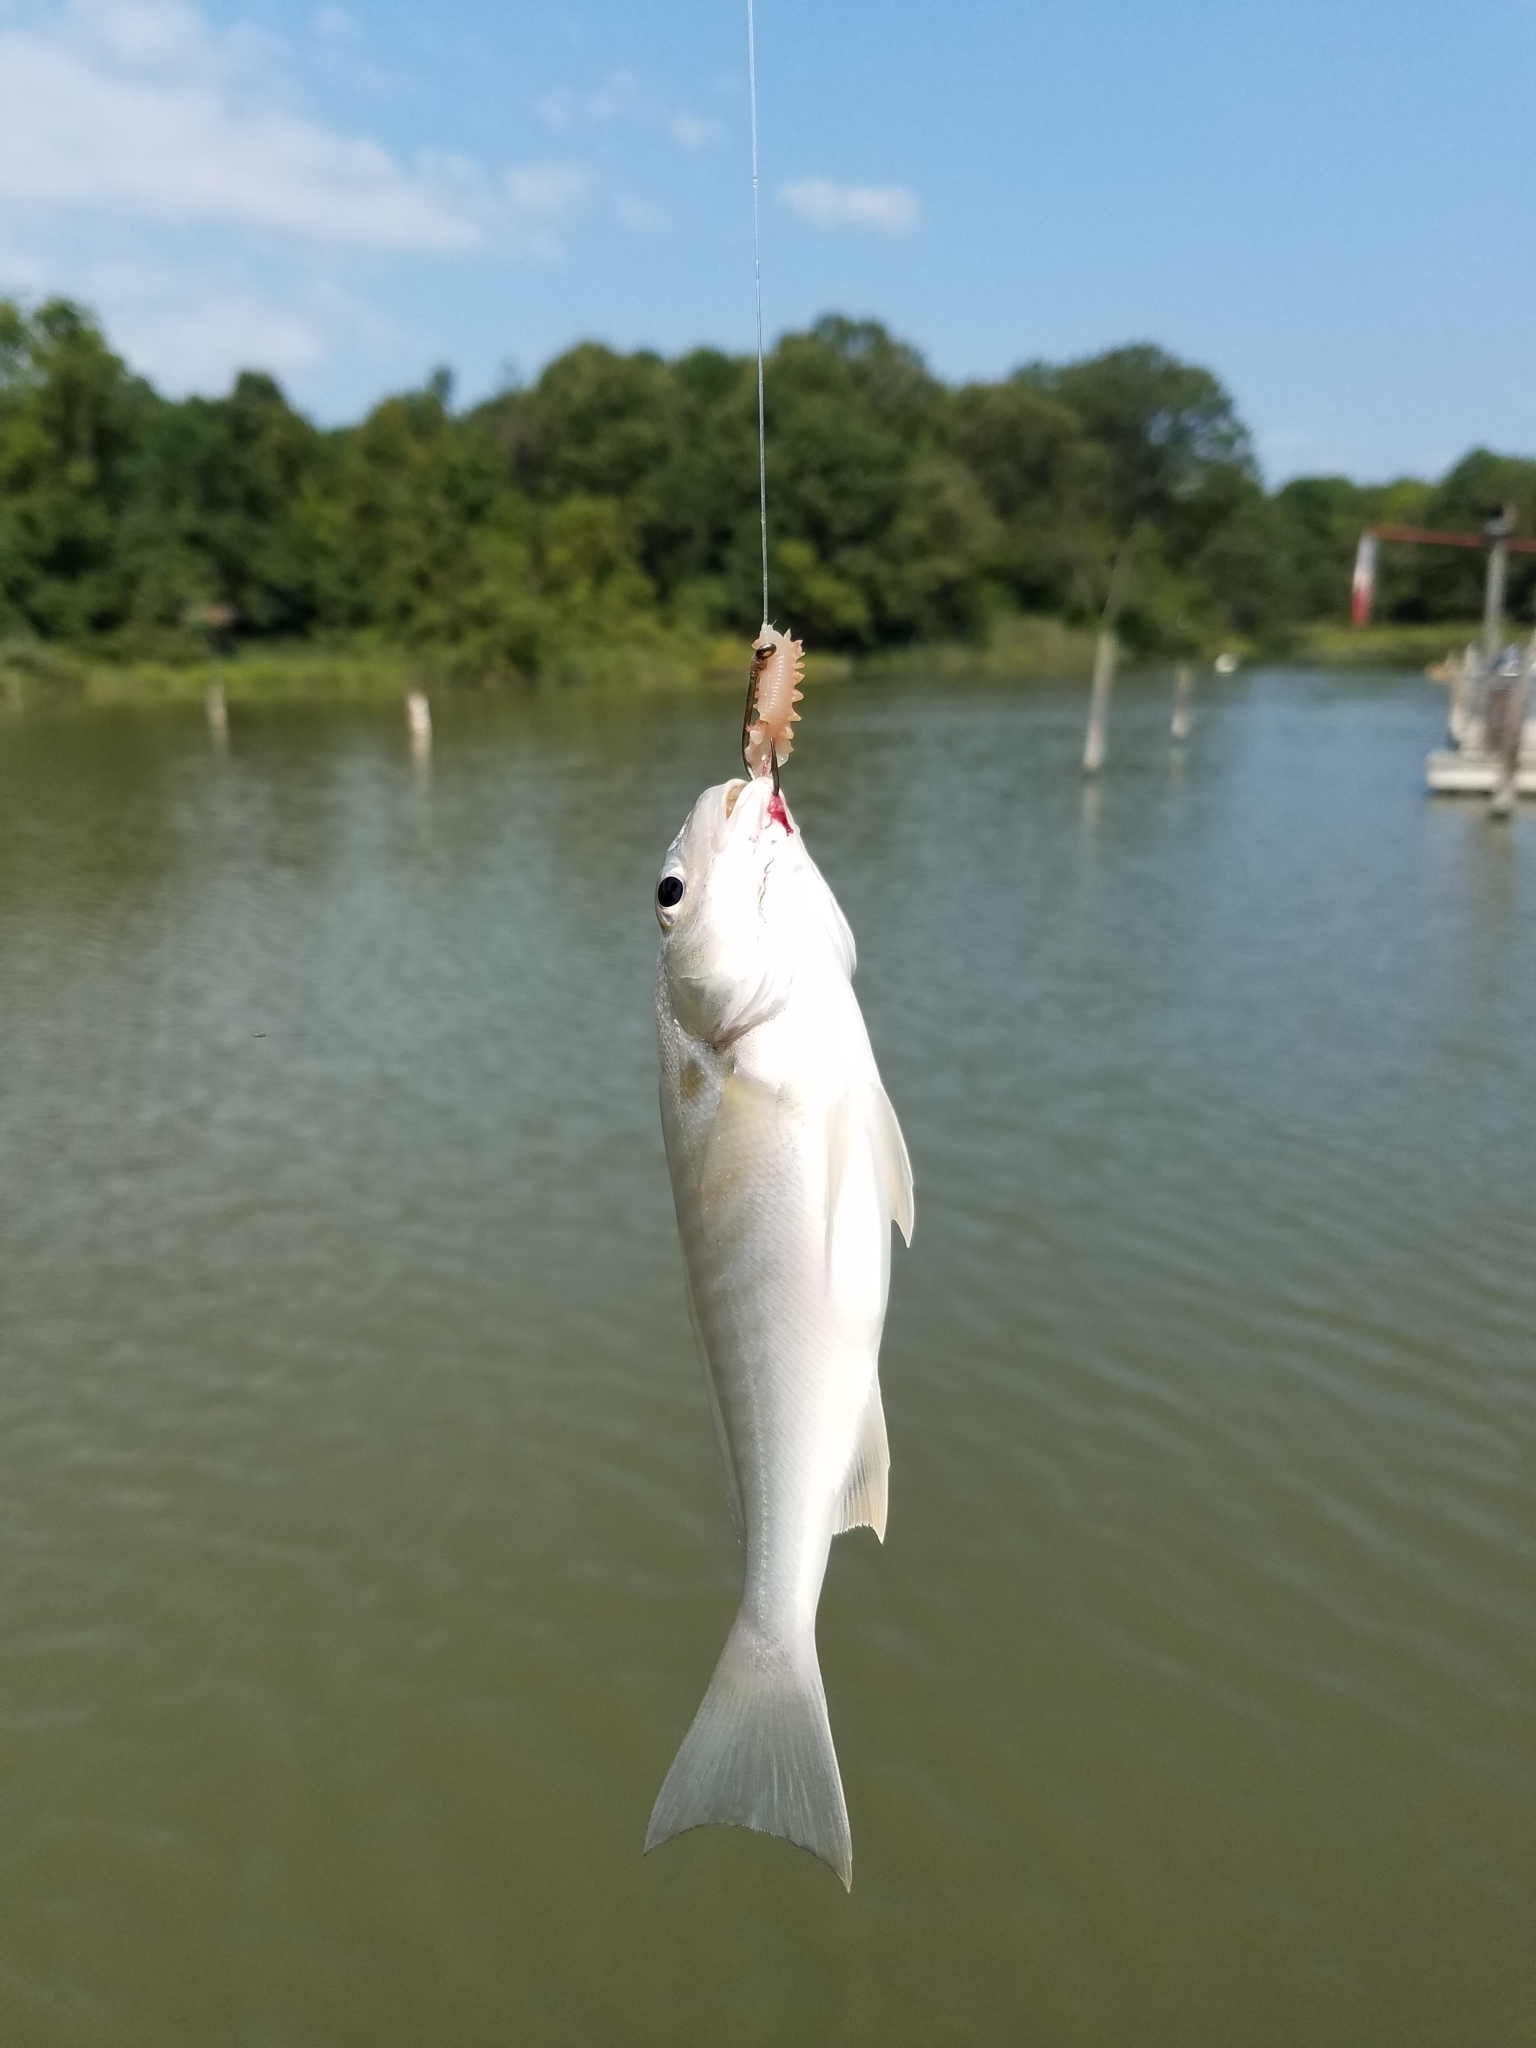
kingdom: Animalia
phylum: Chordata
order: Perciformes
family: Sciaenidae
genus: Leiostomus
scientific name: Leiostomus xanthurus
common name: Spot
